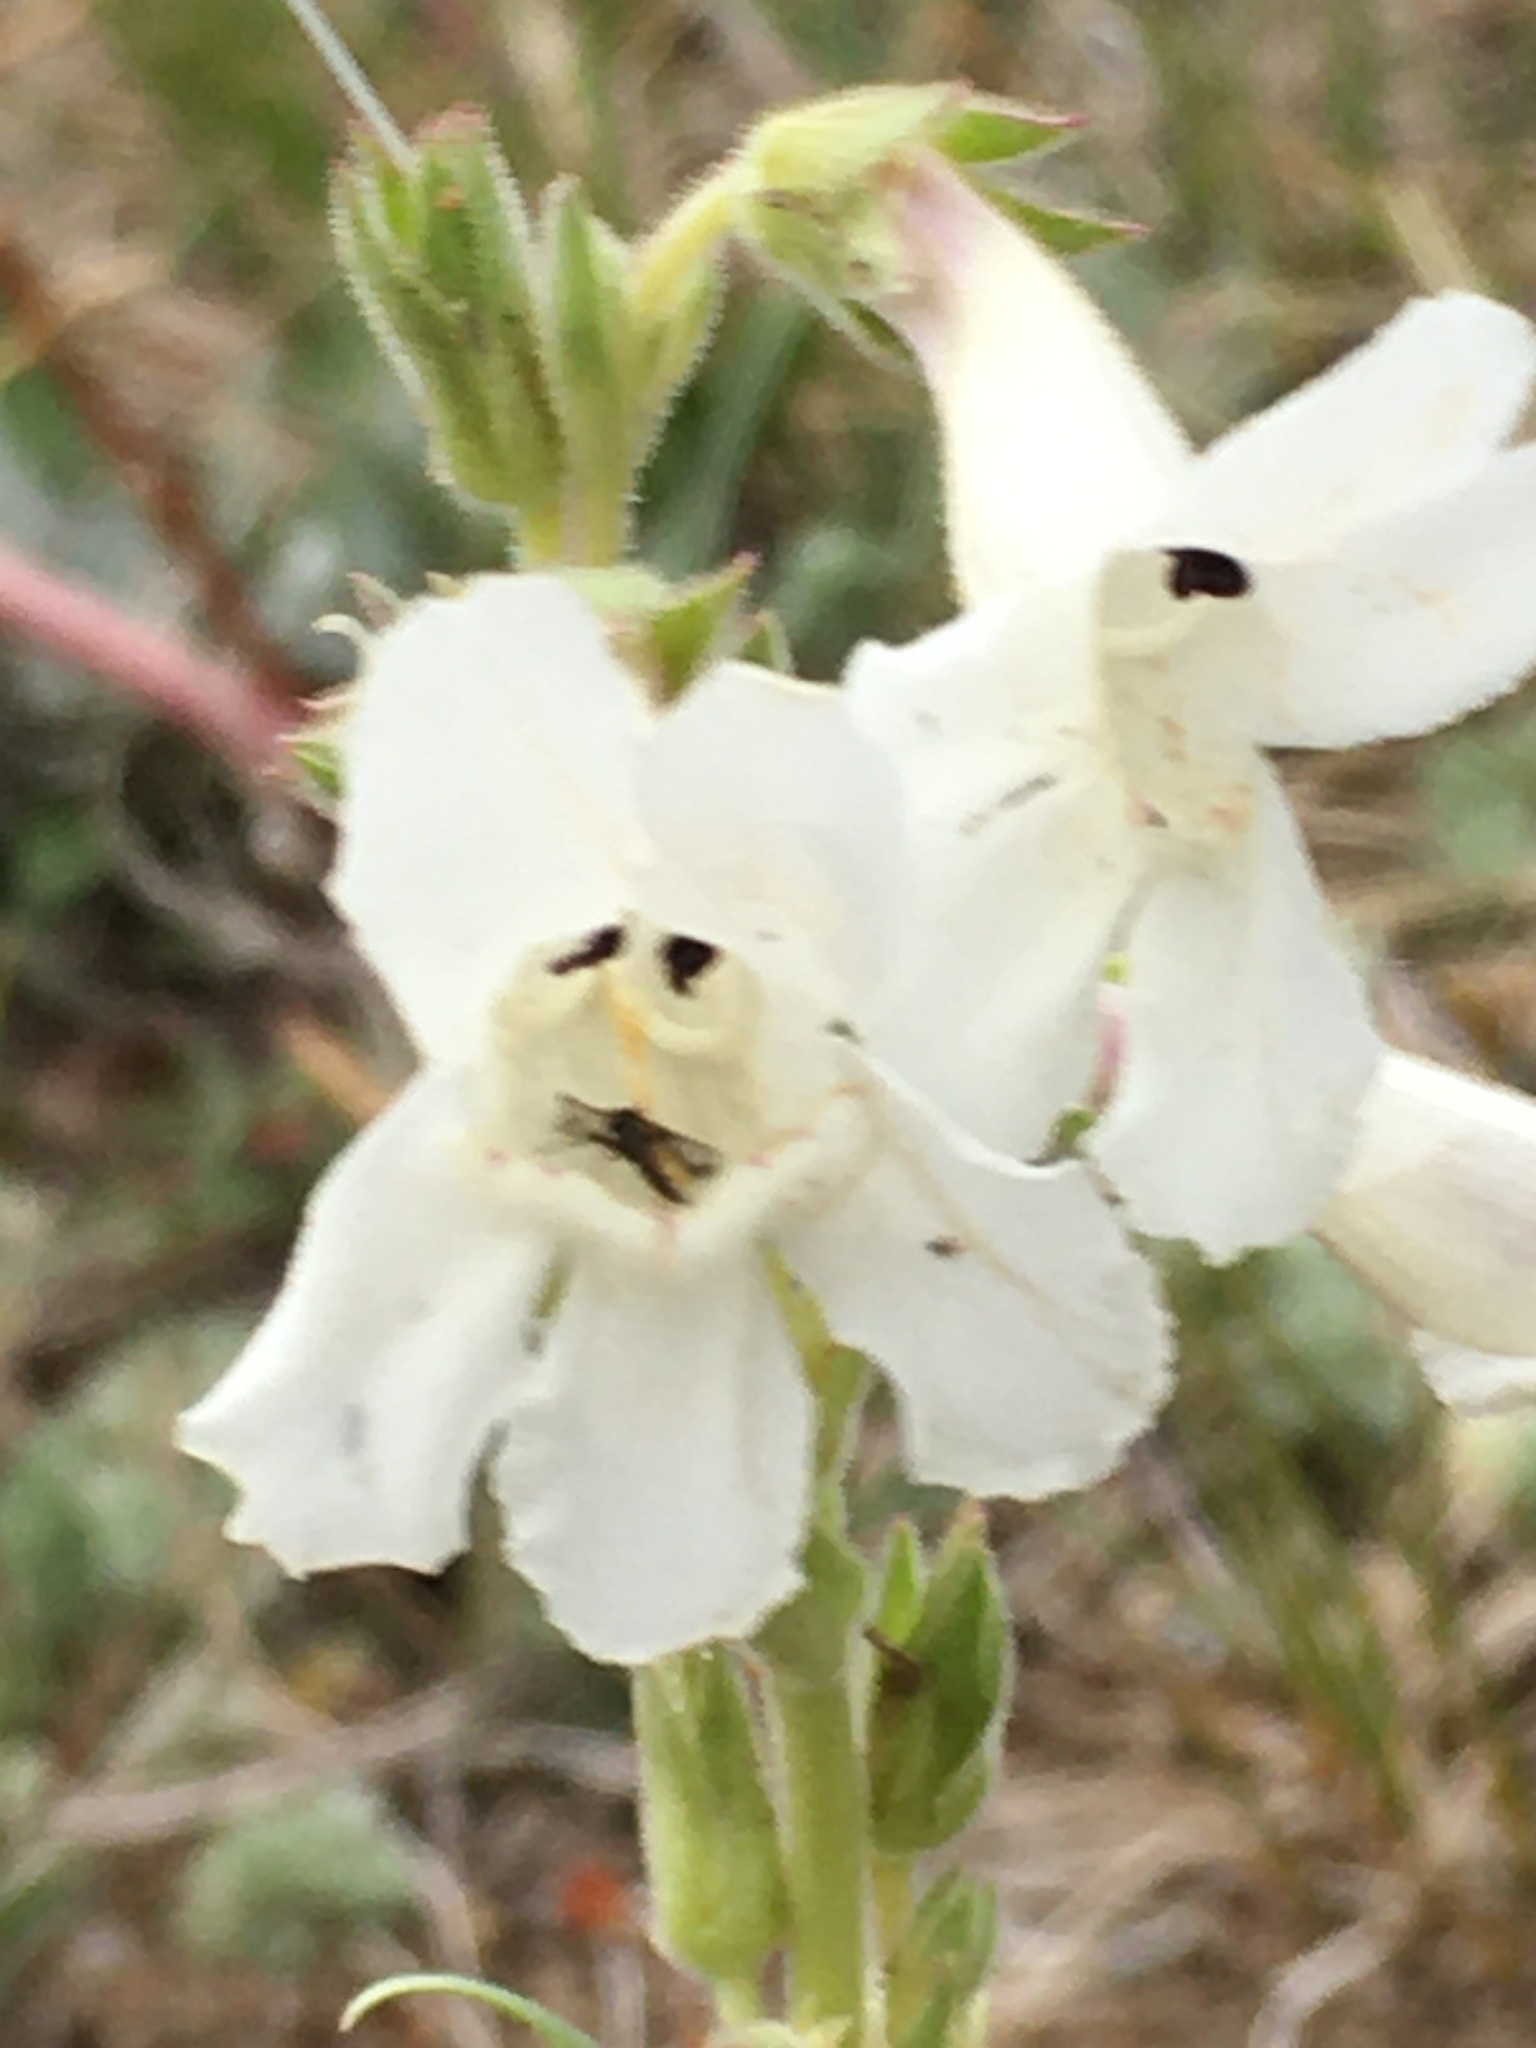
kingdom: Plantae
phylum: Tracheophyta
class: Magnoliopsida
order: Lamiales
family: Plantaginaceae
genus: Penstemon
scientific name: Penstemon albidus
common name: White beardtongue
